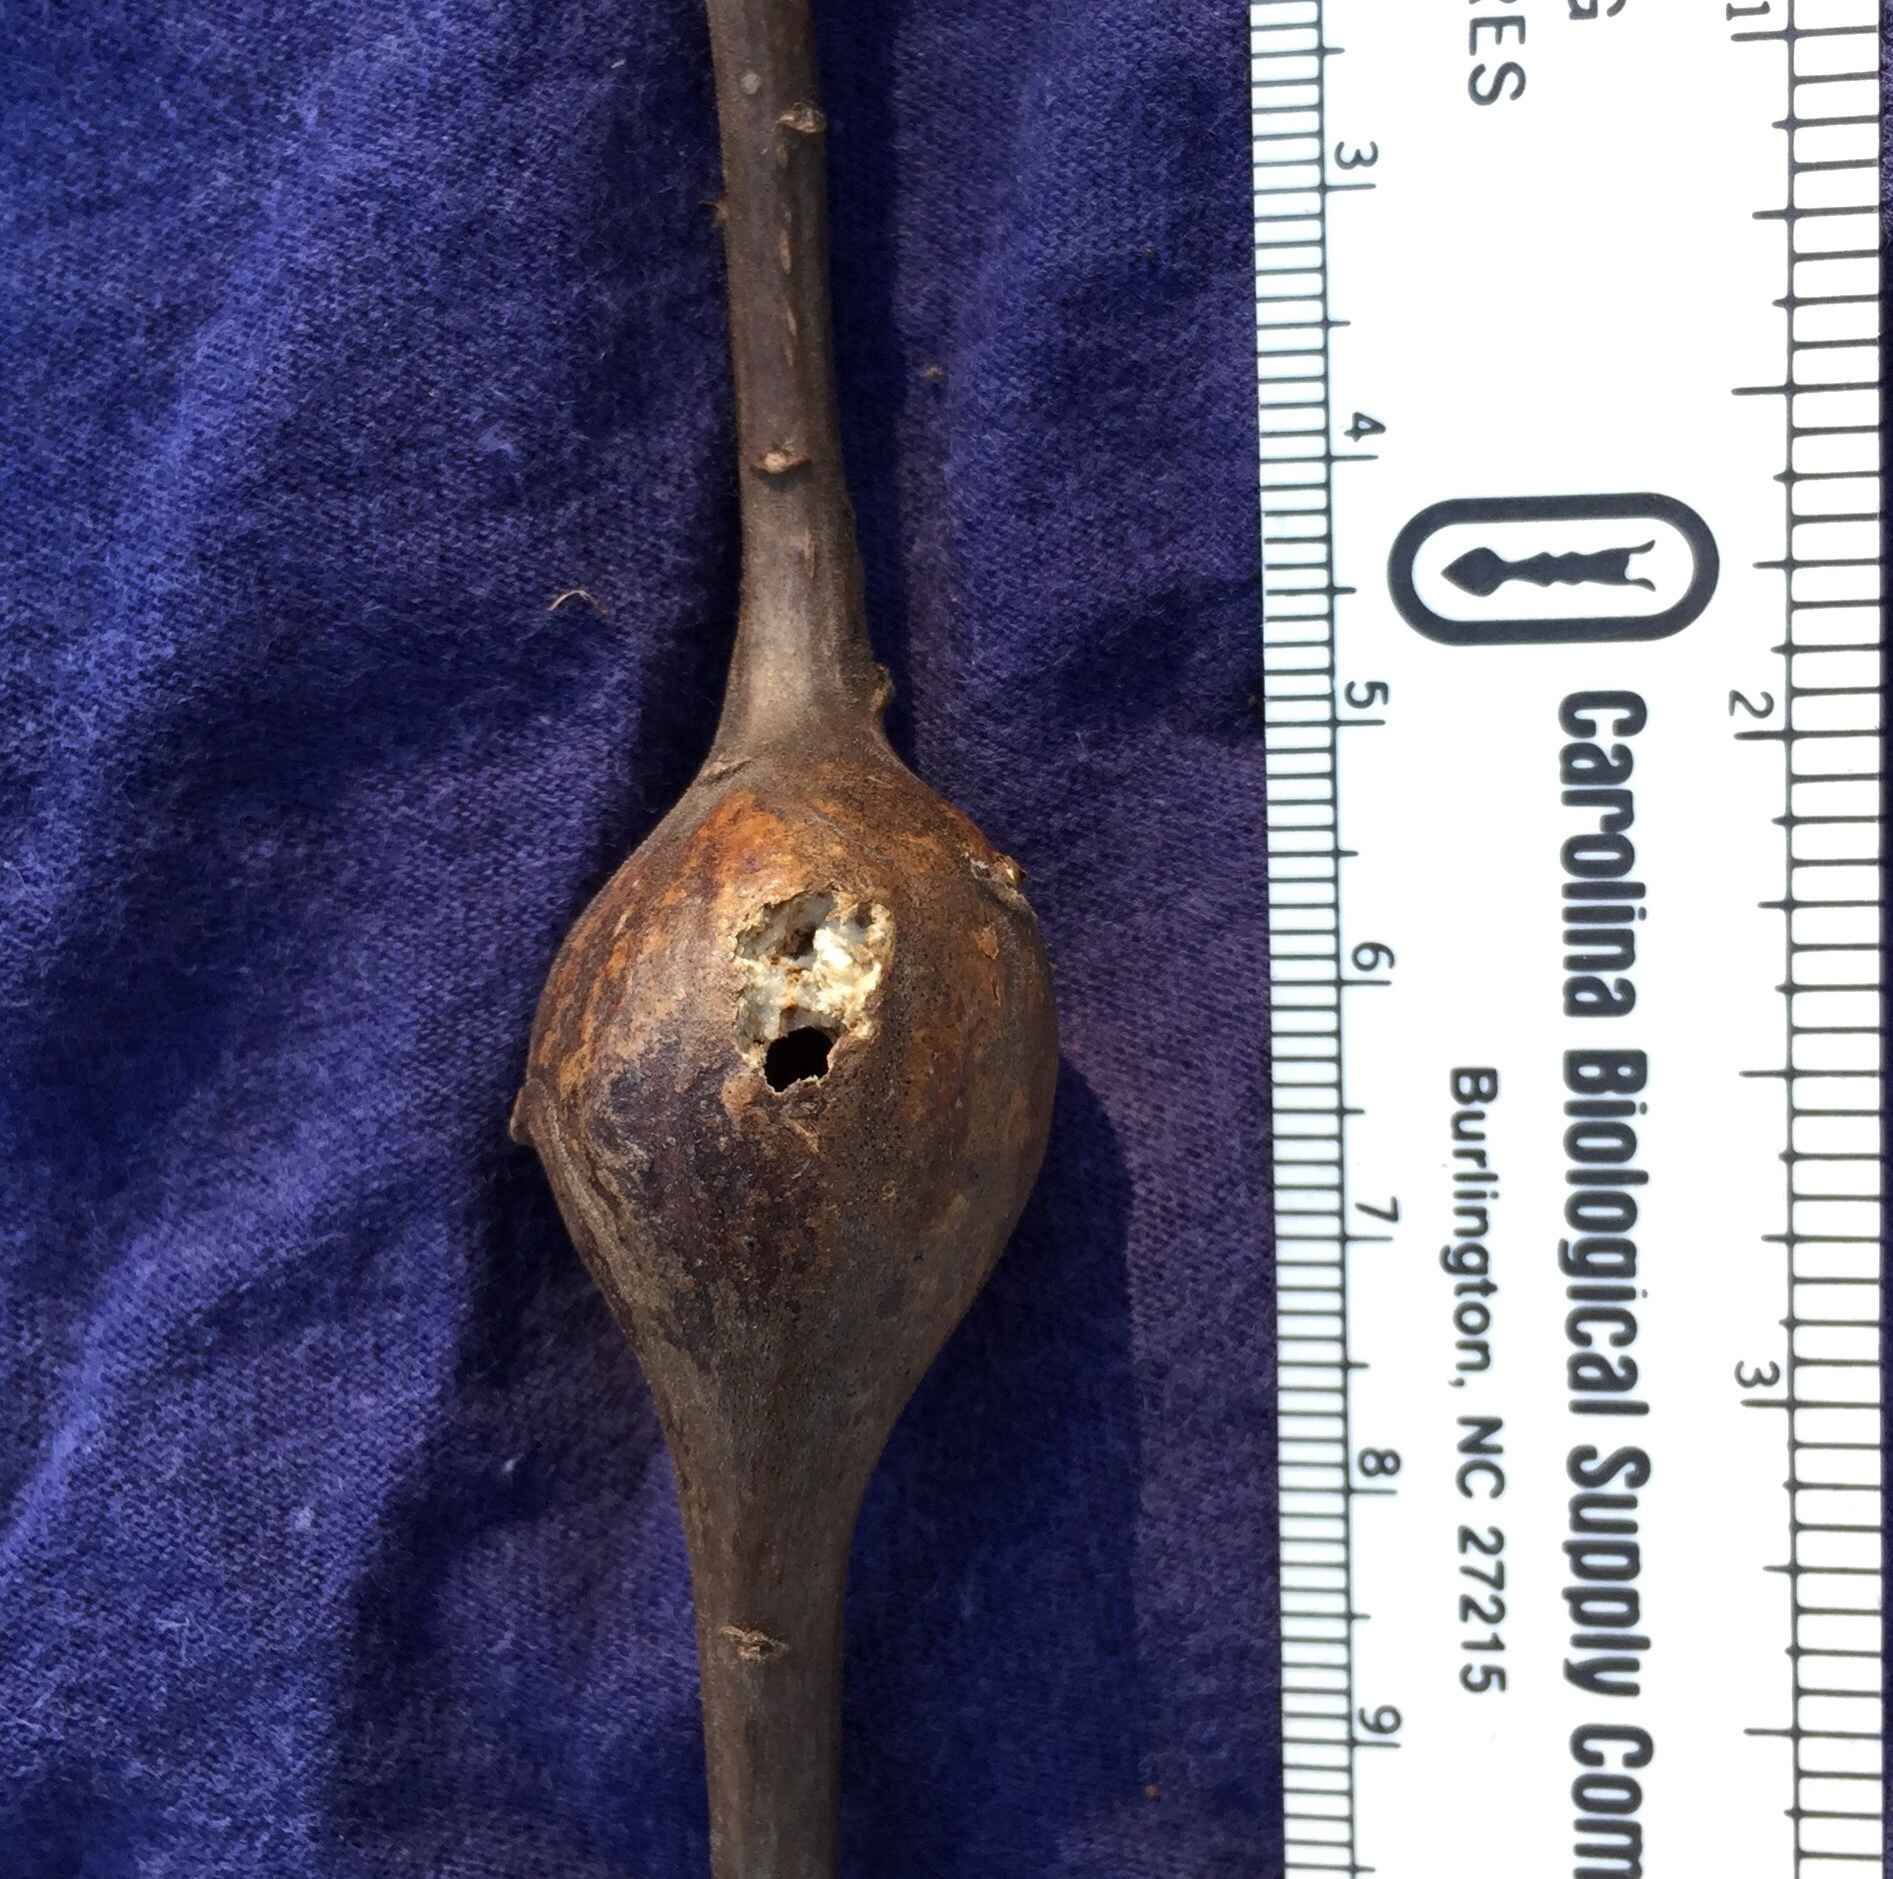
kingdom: Animalia
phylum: Arthropoda
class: Insecta
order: Diptera
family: Tephritidae
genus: Eurosta
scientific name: Eurosta solidaginis
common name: Goldenrod gall fly
